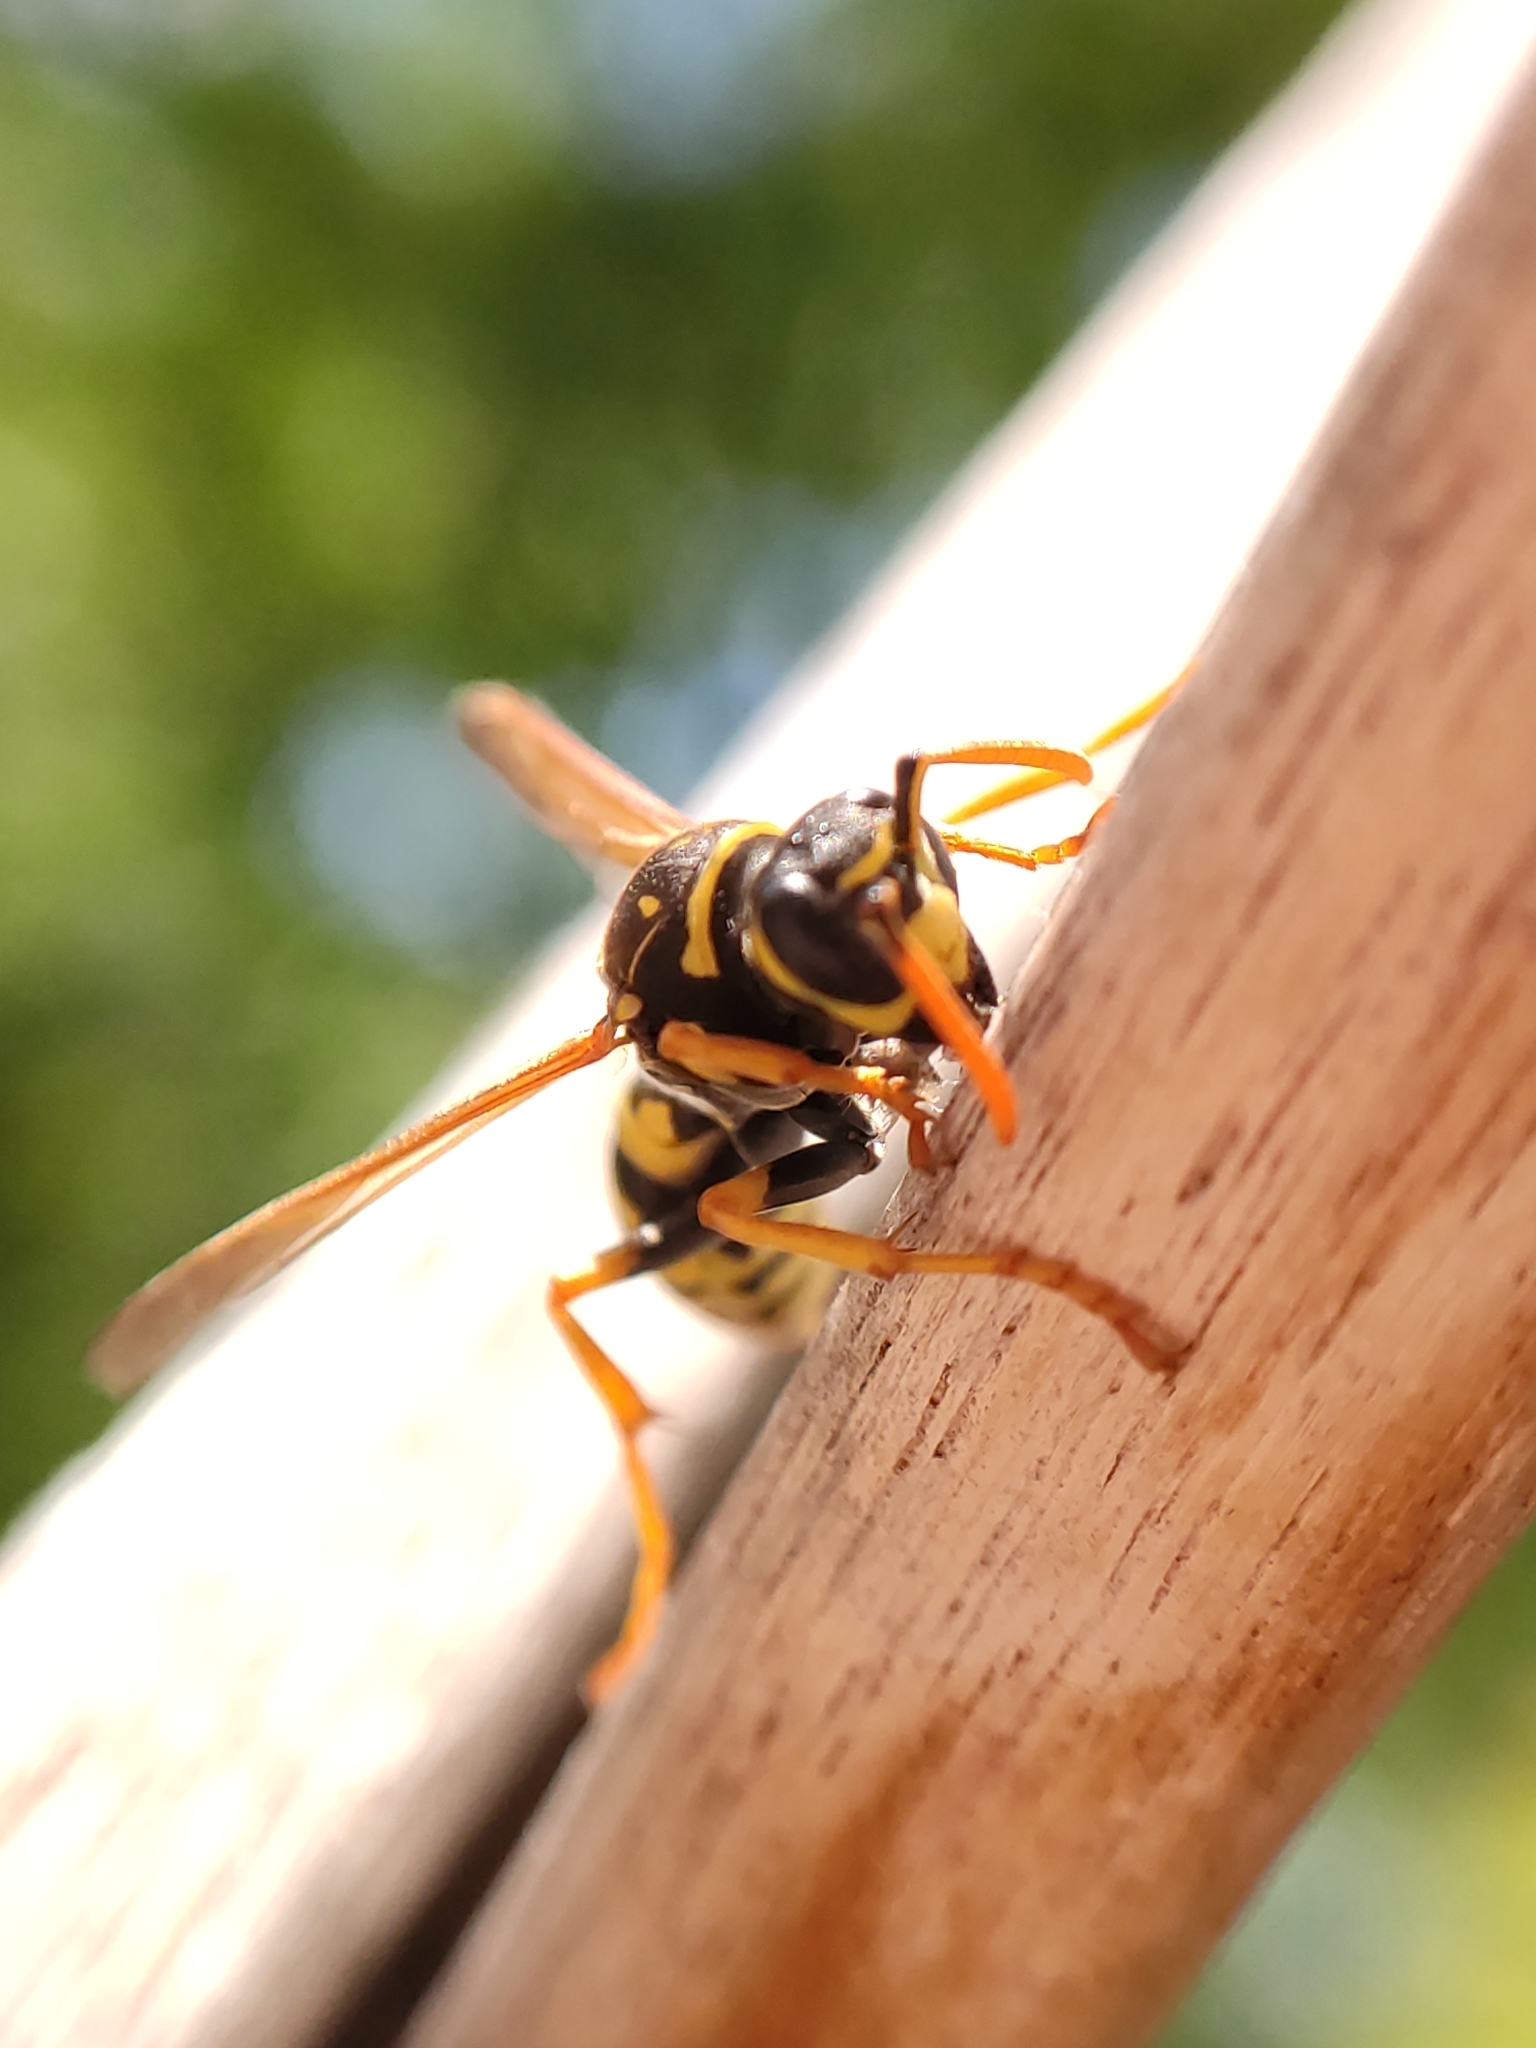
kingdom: Animalia
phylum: Arthropoda
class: Insecta
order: Hymenoptera
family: Eumenidae
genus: Polistes
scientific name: Polistes dominula
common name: Paper wasp
